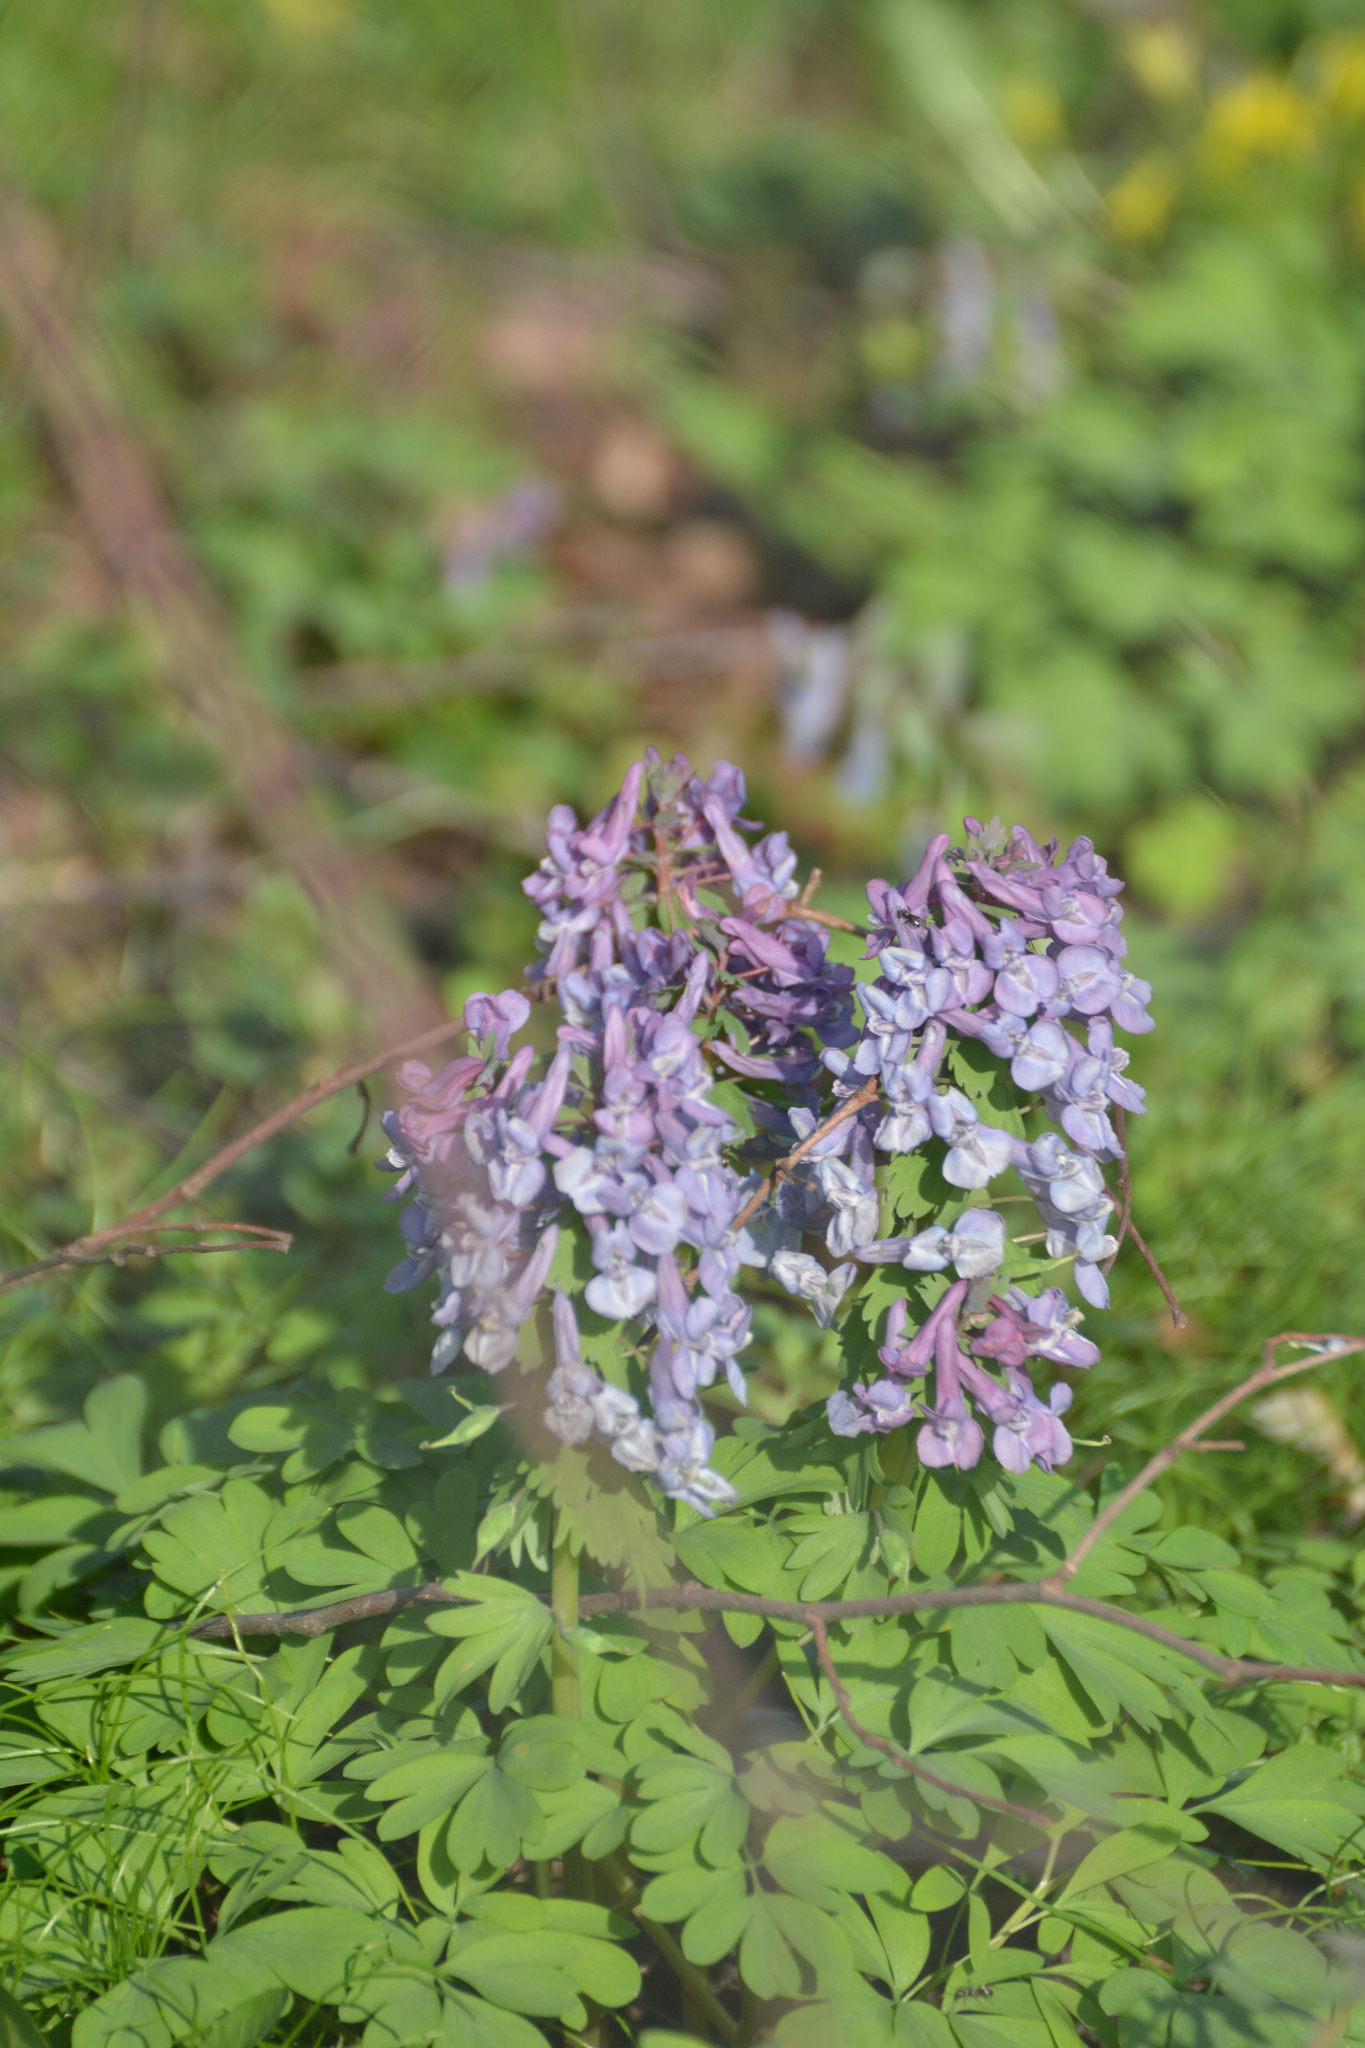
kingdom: Plantae
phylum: Tracheophyta
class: Magnoliopsida
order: Ranunculales
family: Papaveraceae
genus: Corydalis
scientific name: Corydalis solida
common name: Bird-in-a-bush
